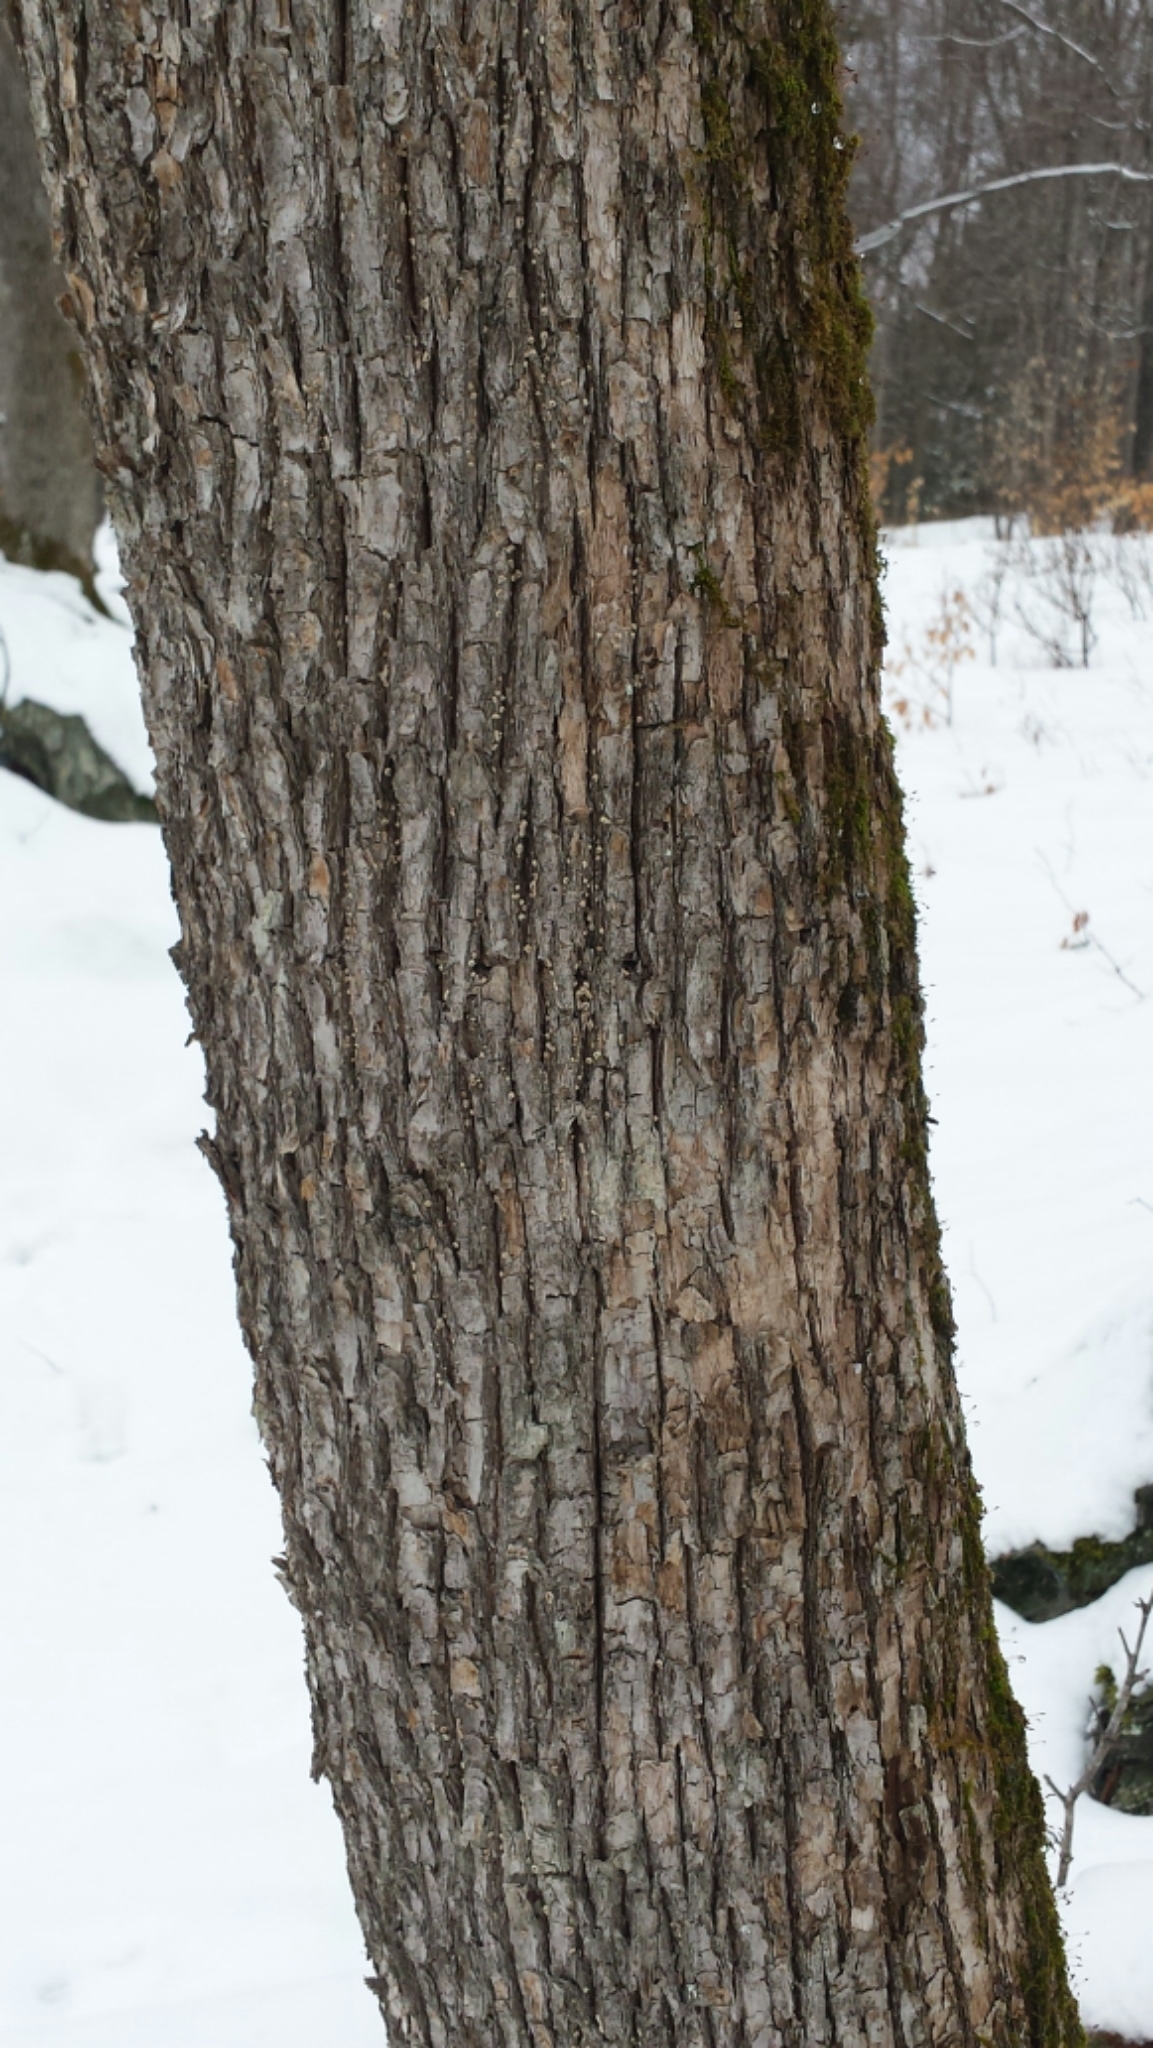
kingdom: Plantae
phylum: Tracheophyta
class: Magnoliopsida
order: Fagales
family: Betulaceae
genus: Ostrya
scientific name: Ostrya virginiana
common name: Ironwood
